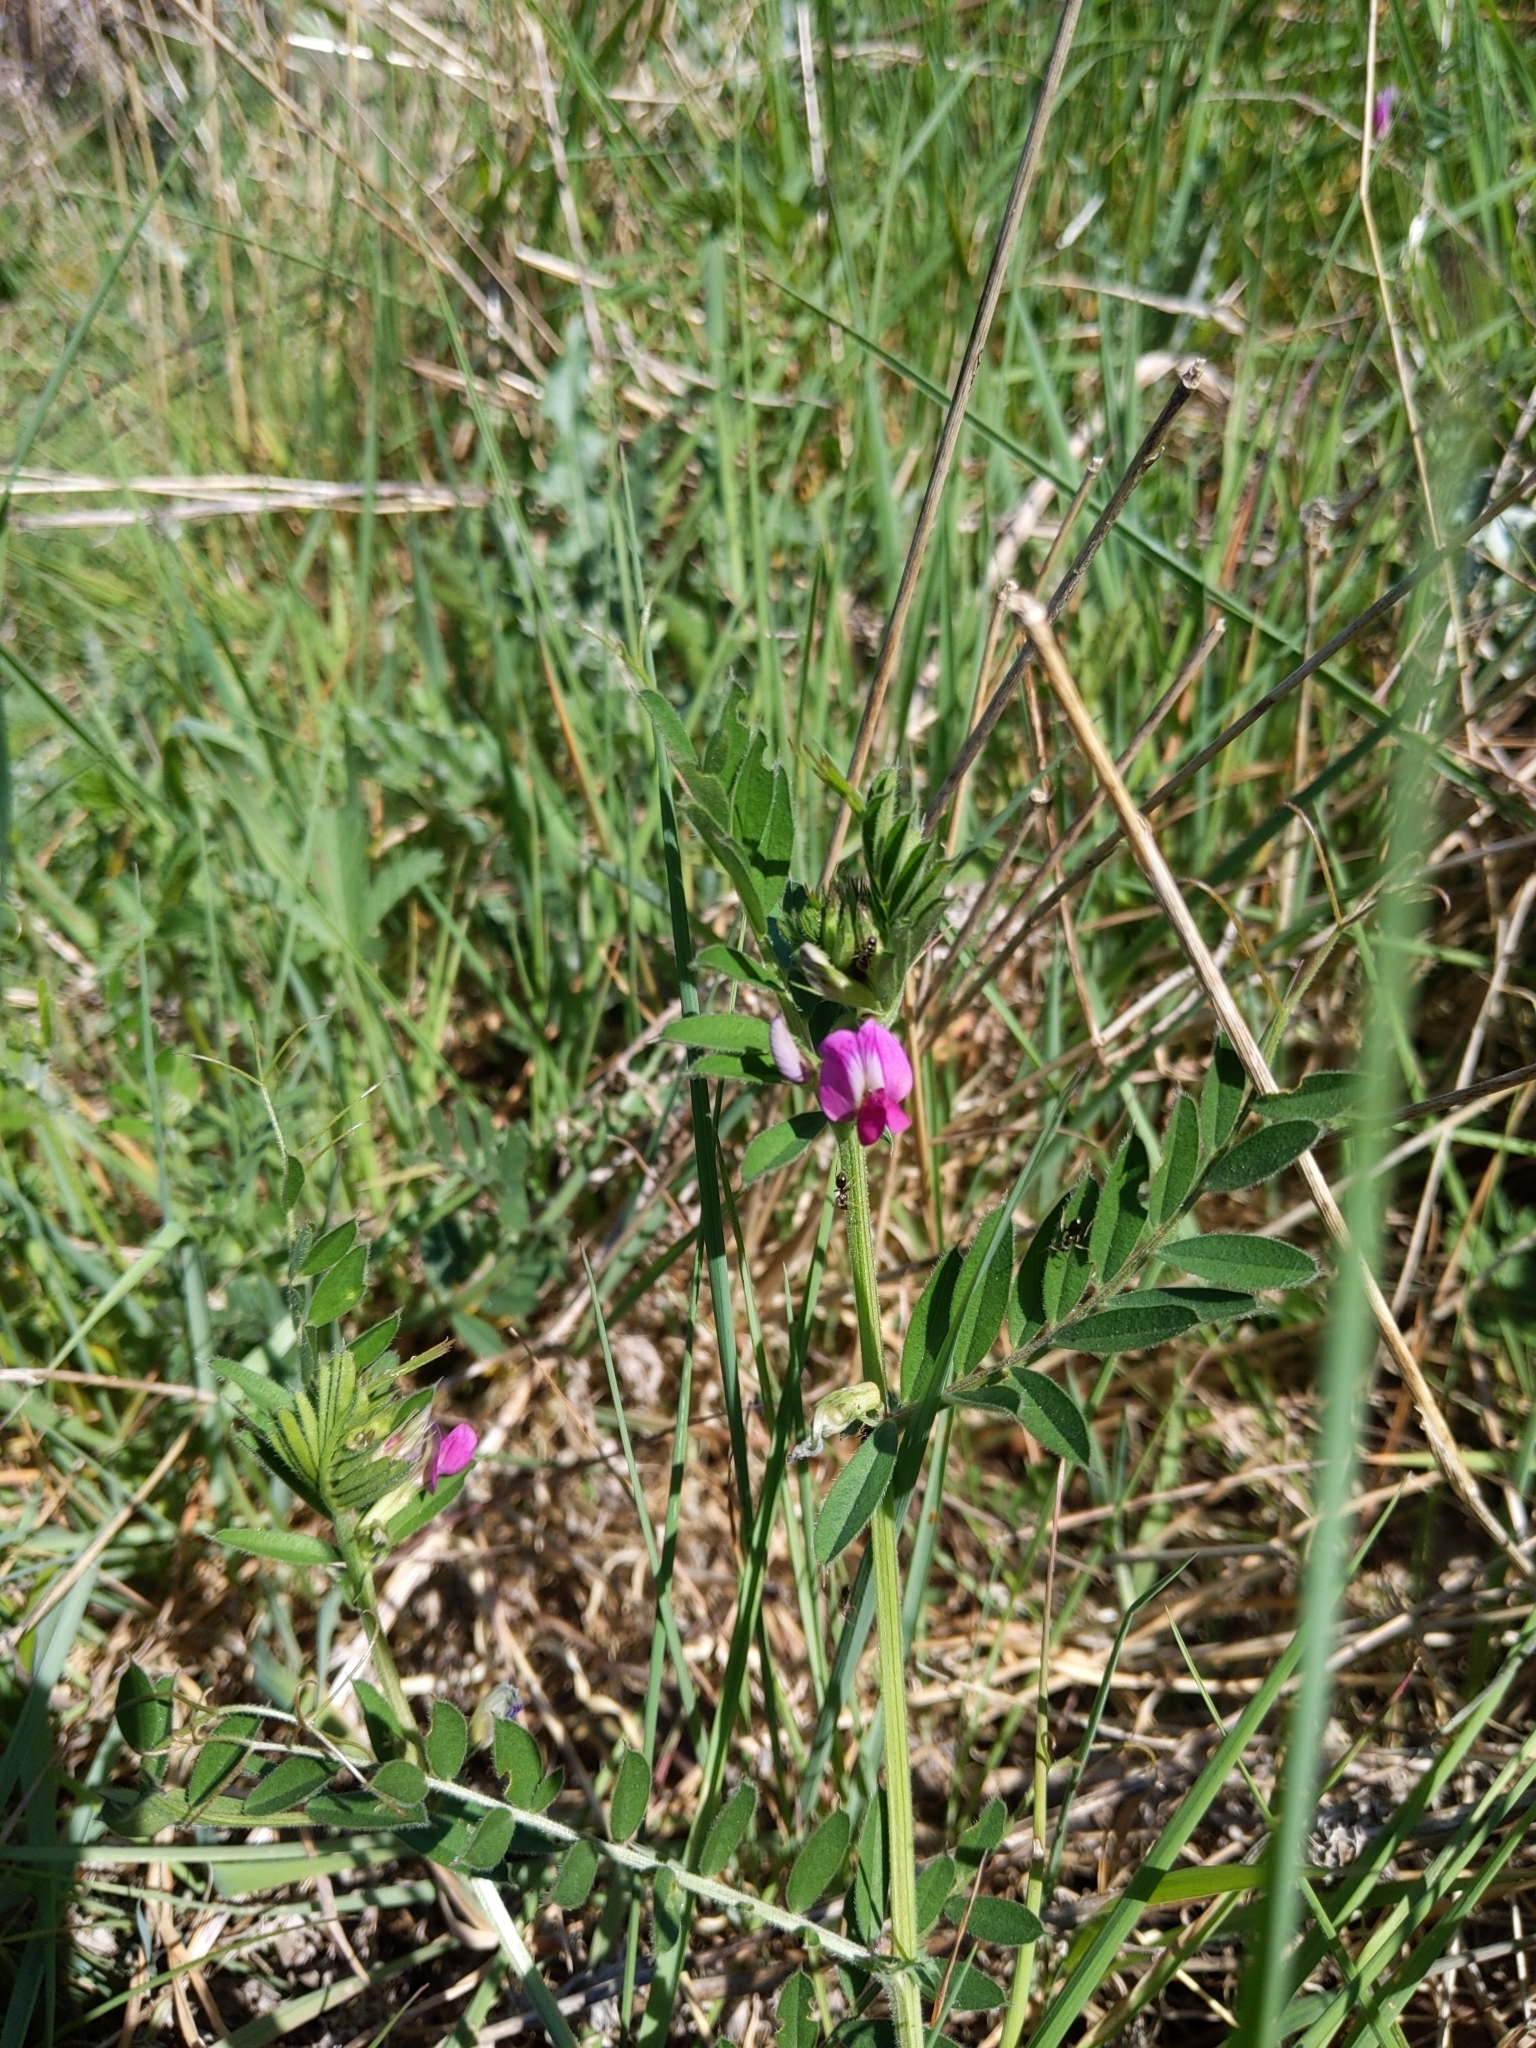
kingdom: Plantae
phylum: Tracheophyta
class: Magnoliopsida
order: Fabales
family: Fabaceae
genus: Vicia
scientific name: Vicia sativa
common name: Garden vetch
